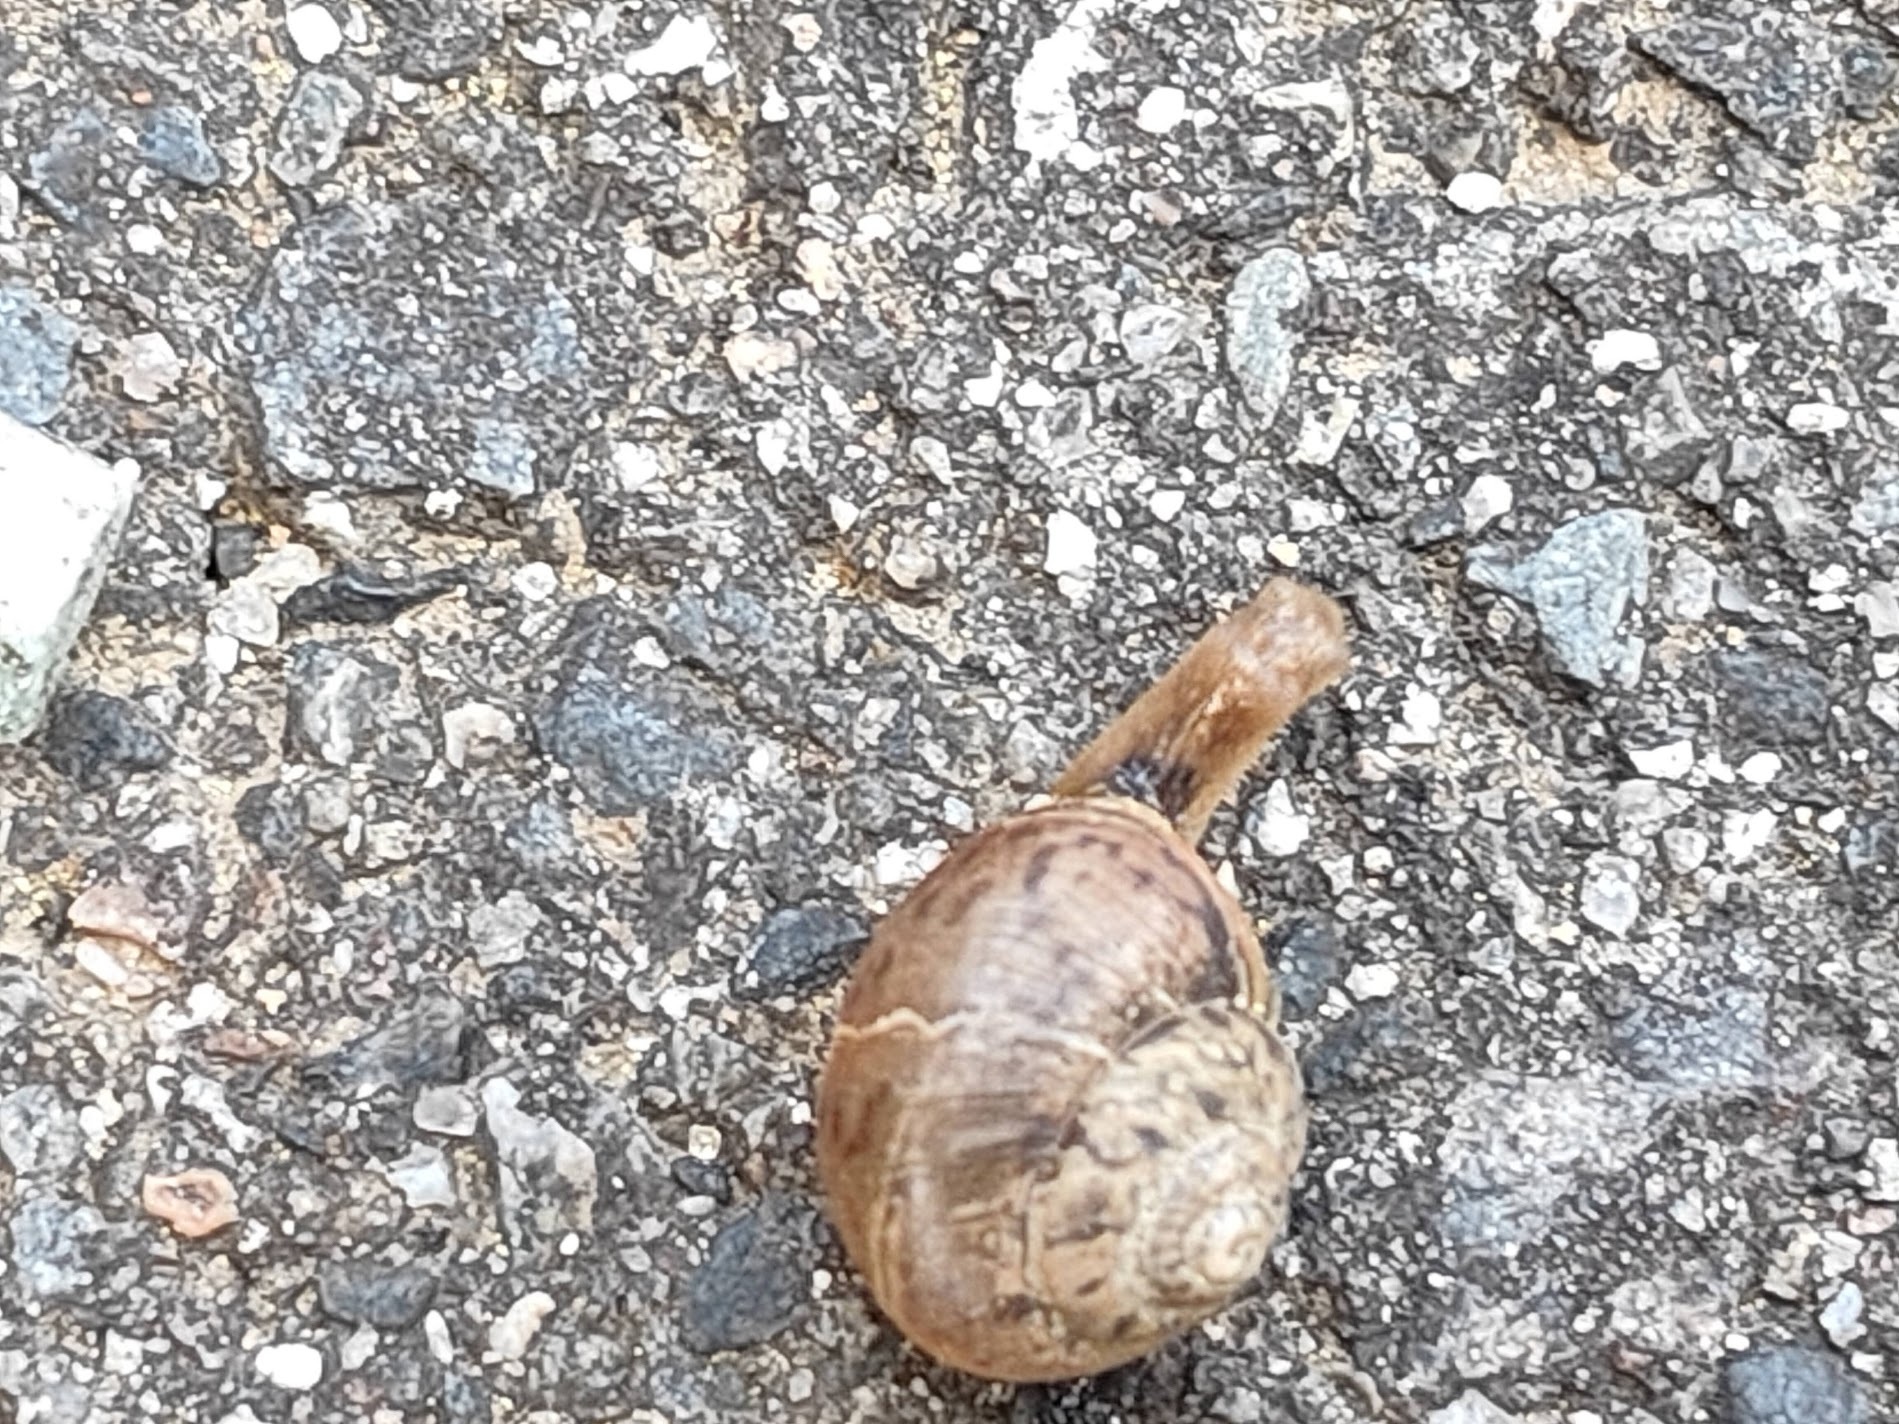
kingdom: Animalia
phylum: Mollusca
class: Gastropoda
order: Stylommatophora
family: Camaenidae
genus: Acusta
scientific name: Acusta sieboldtiana
